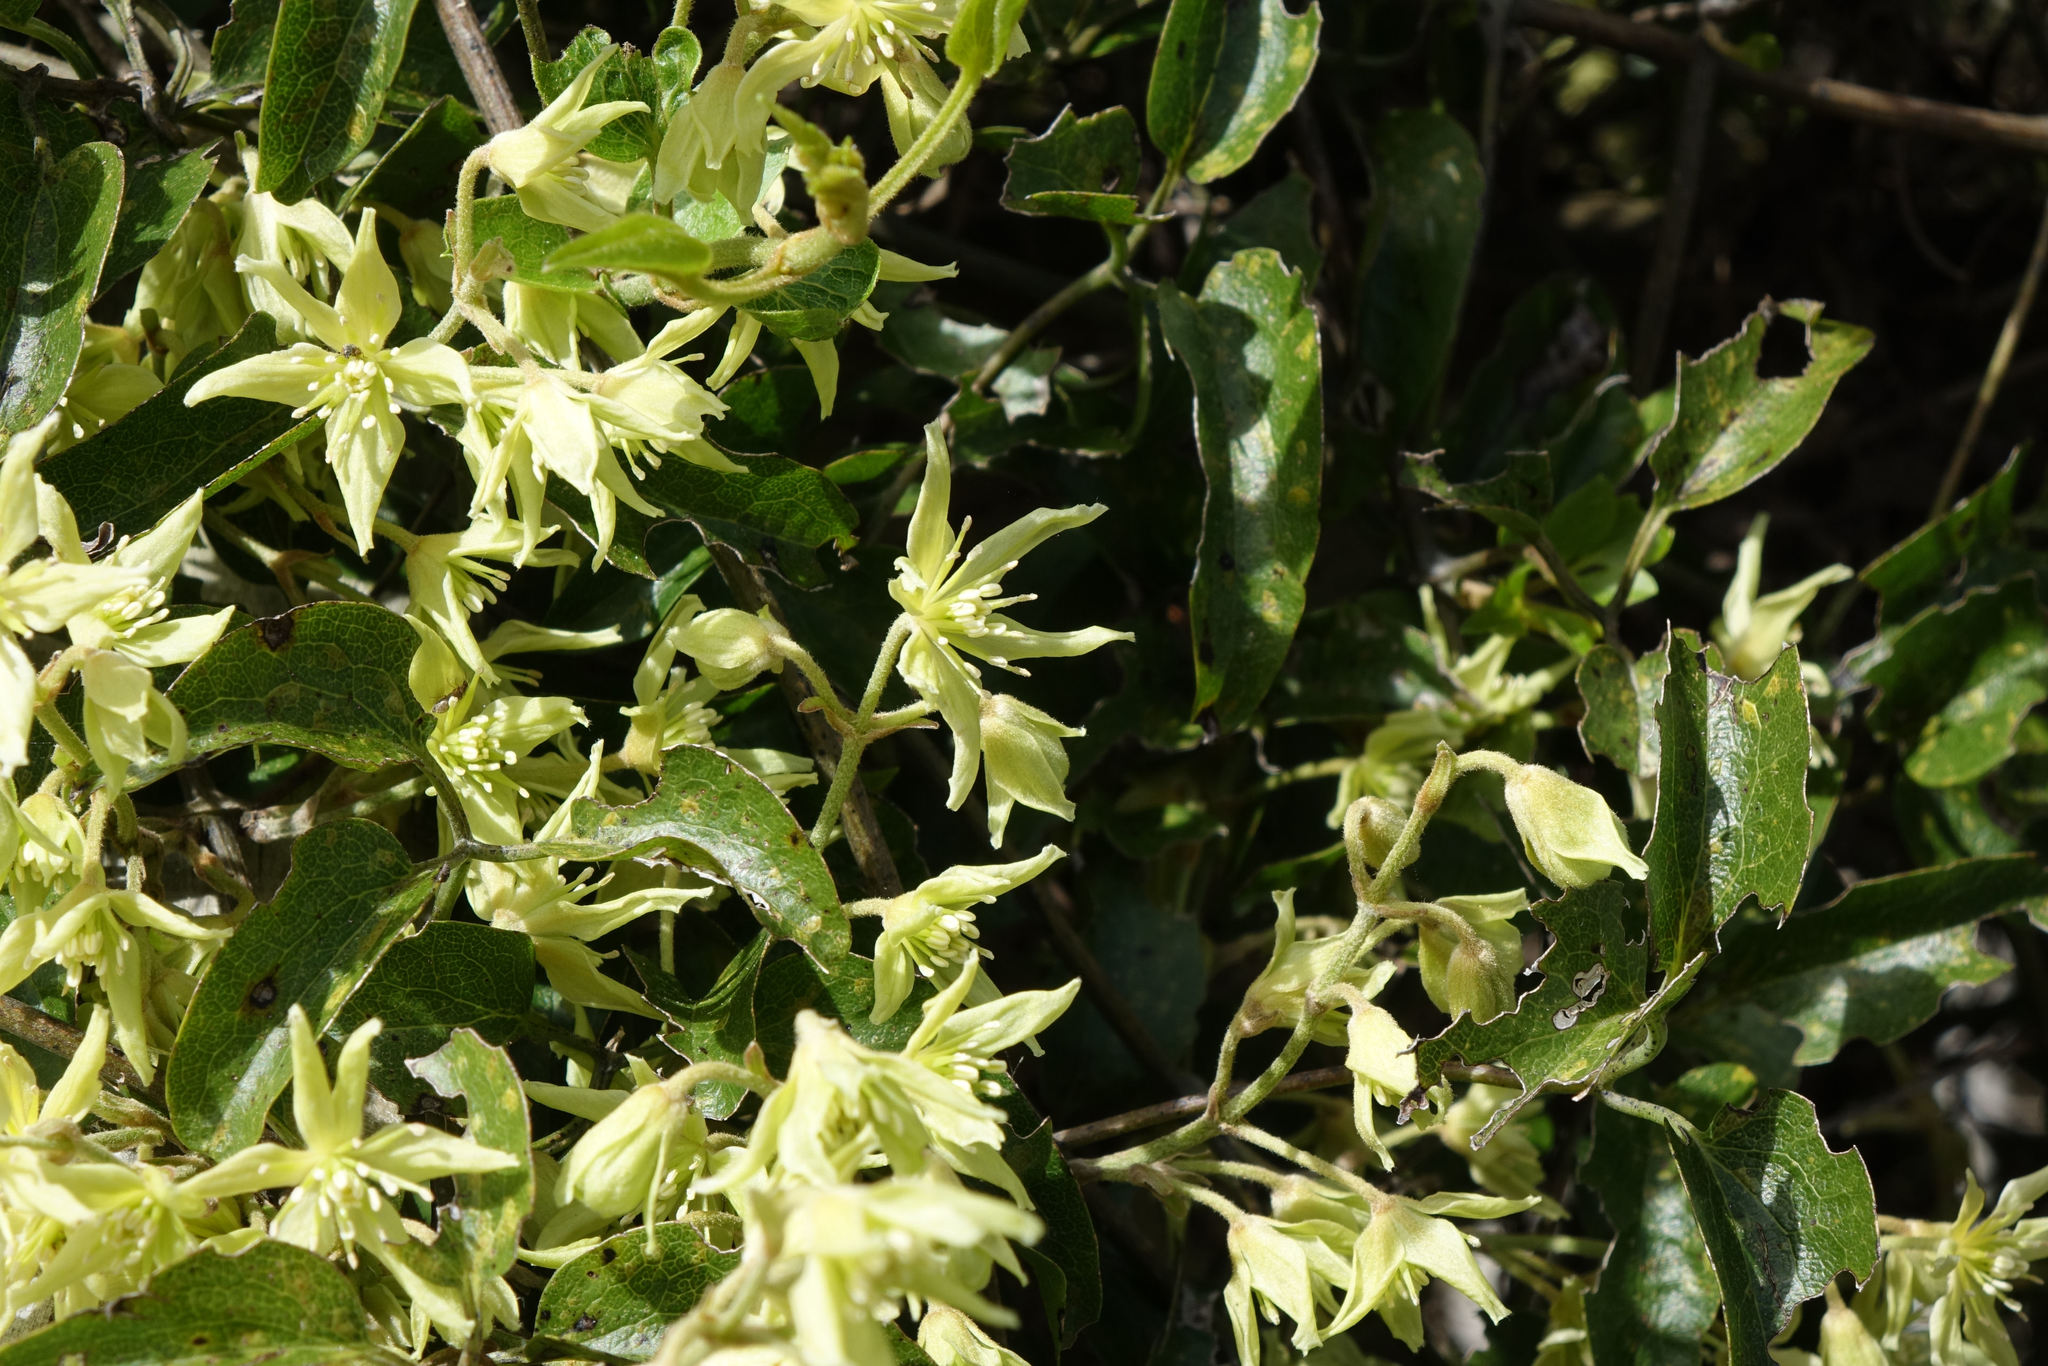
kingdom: Plantae
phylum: Tracheophyta
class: Magnoliopsida
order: Ranunculales
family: Ranunculaceae
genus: Clematis
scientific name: Clematis foetida
